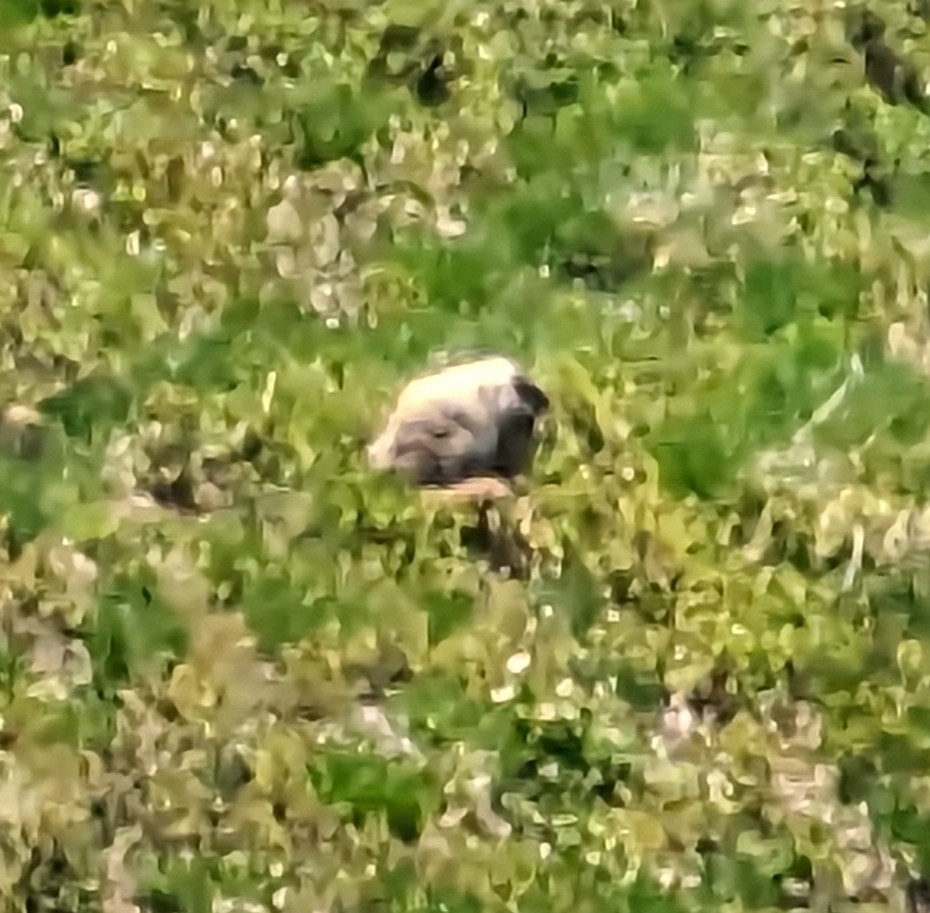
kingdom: Animalia
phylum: Chordata
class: Mammalia
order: Rodentia
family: Sciuridae
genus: Marmota
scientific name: Marmota caligata
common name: Hoary marmot
